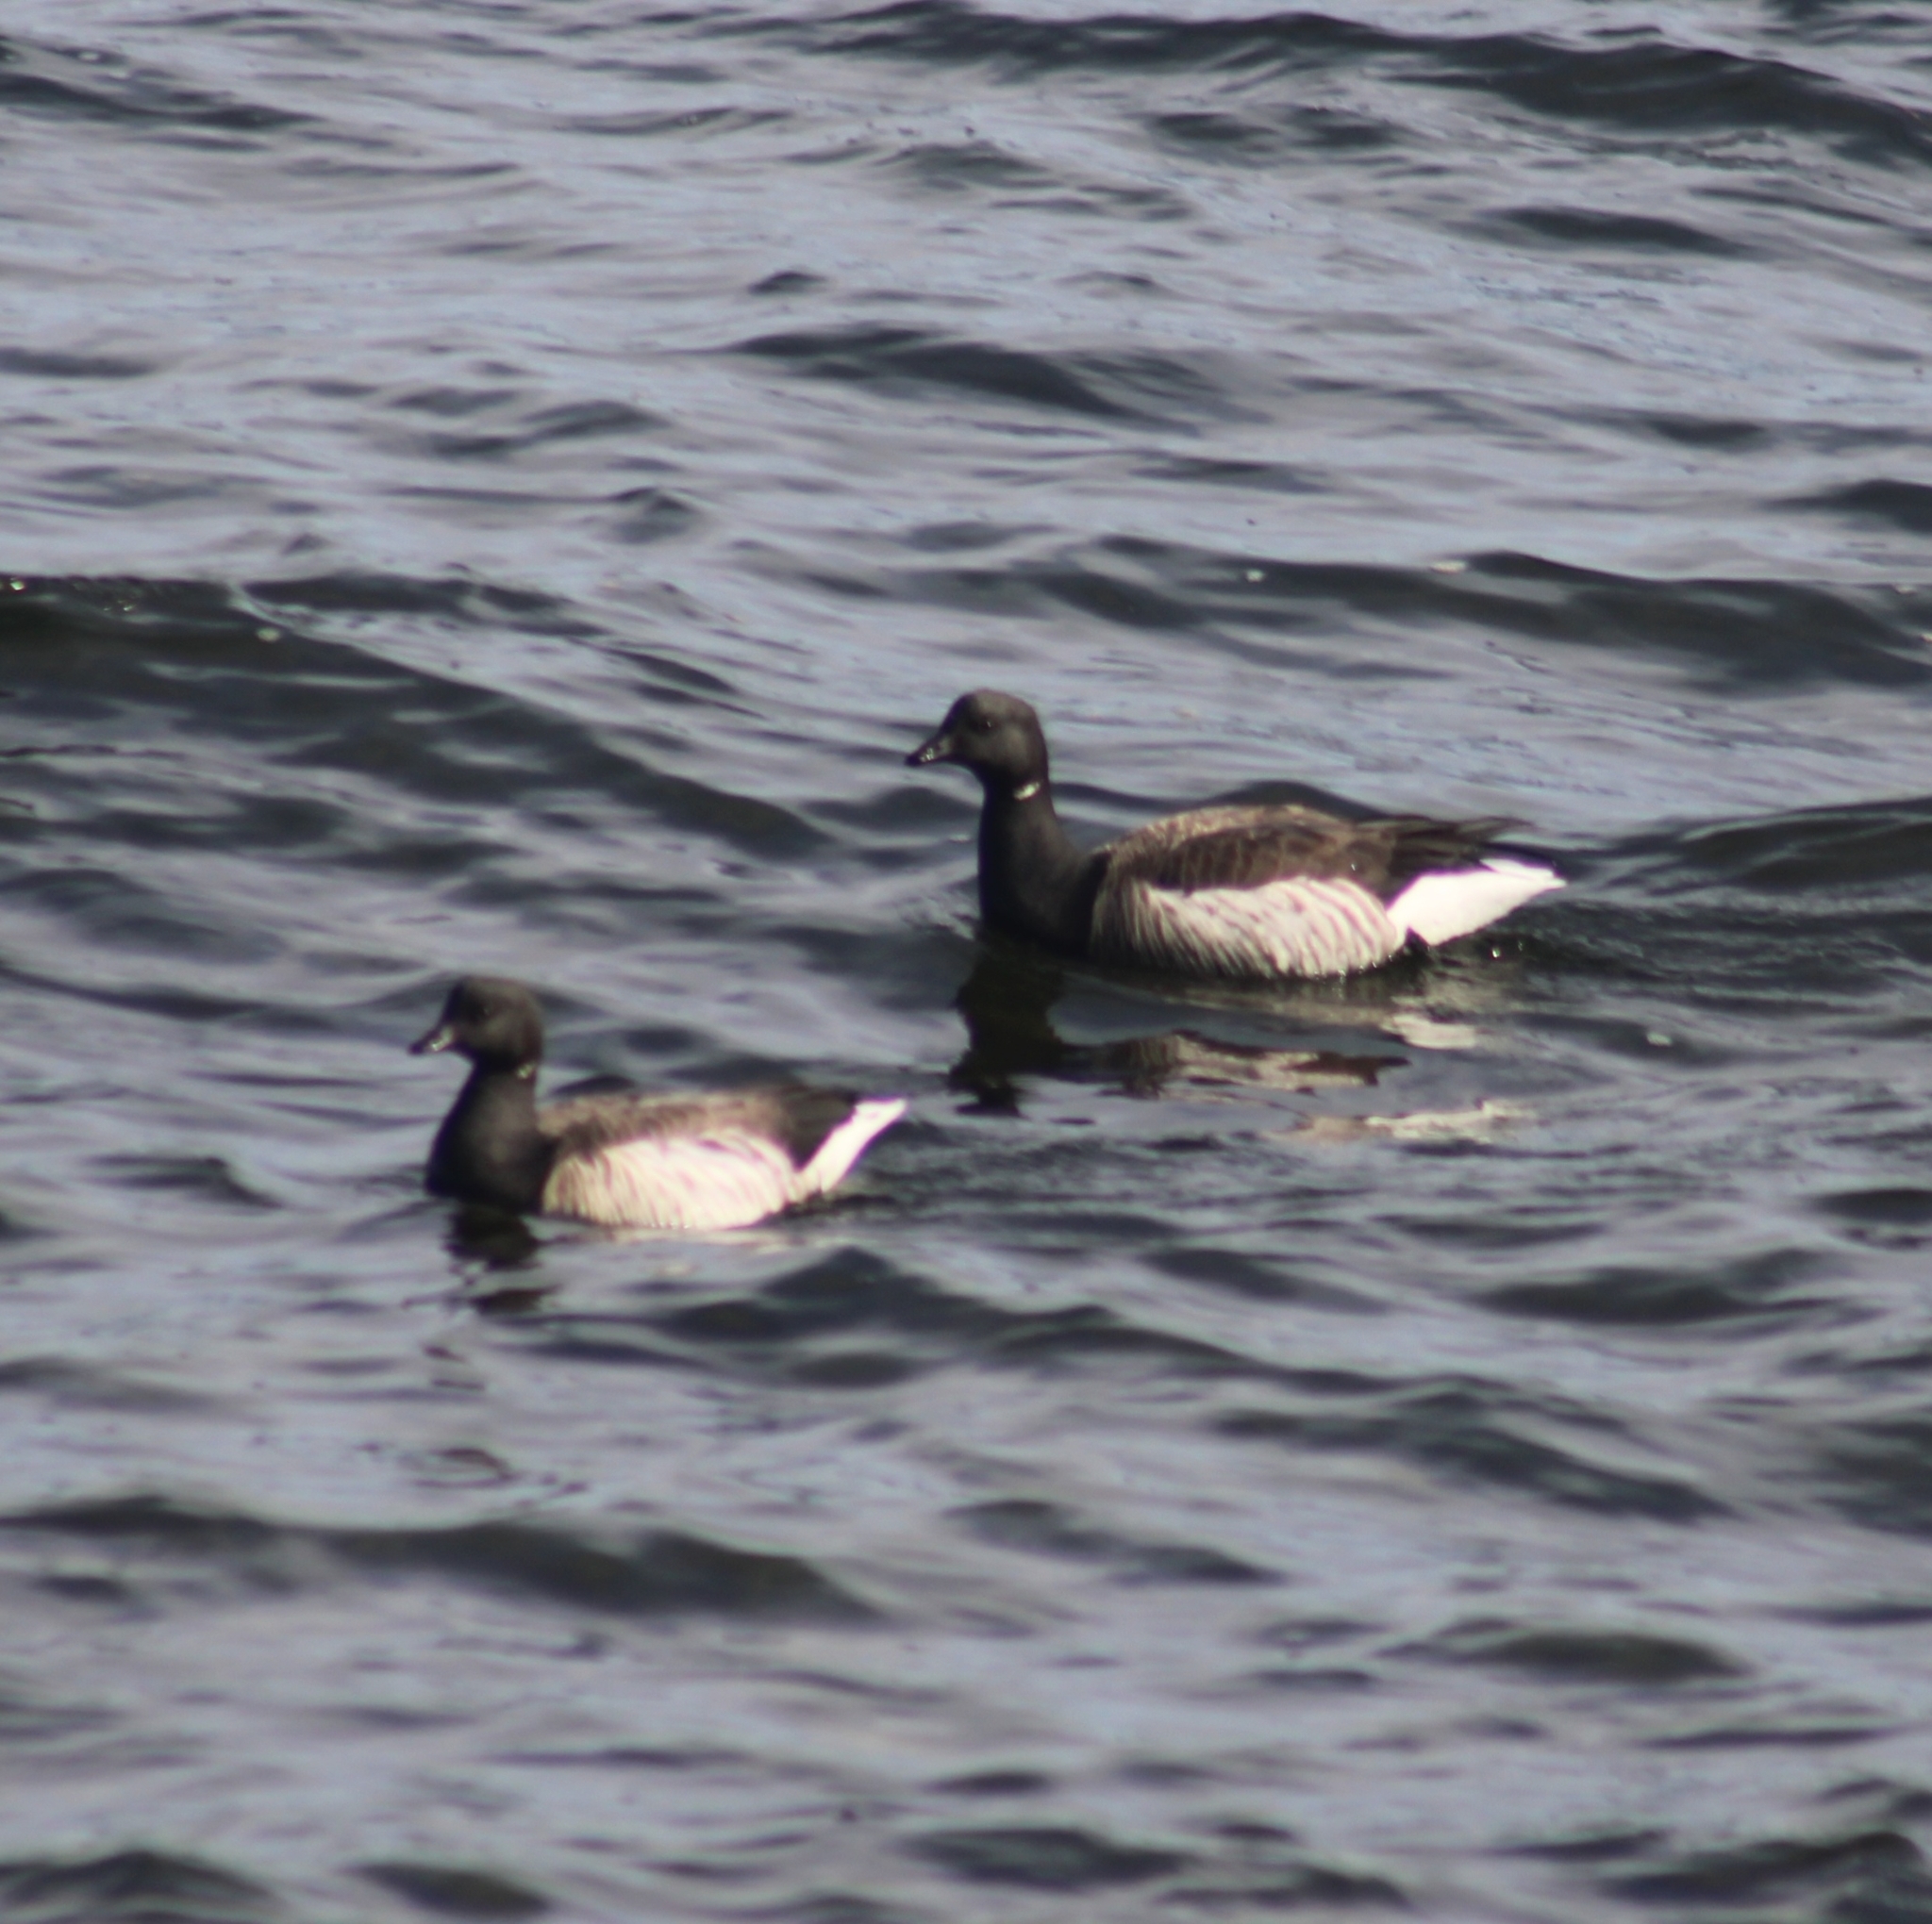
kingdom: Animalia
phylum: Chordata
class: Aves
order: Anseriformes
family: Anatidae
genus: Branta
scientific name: Branta bernicla
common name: Brant goose
